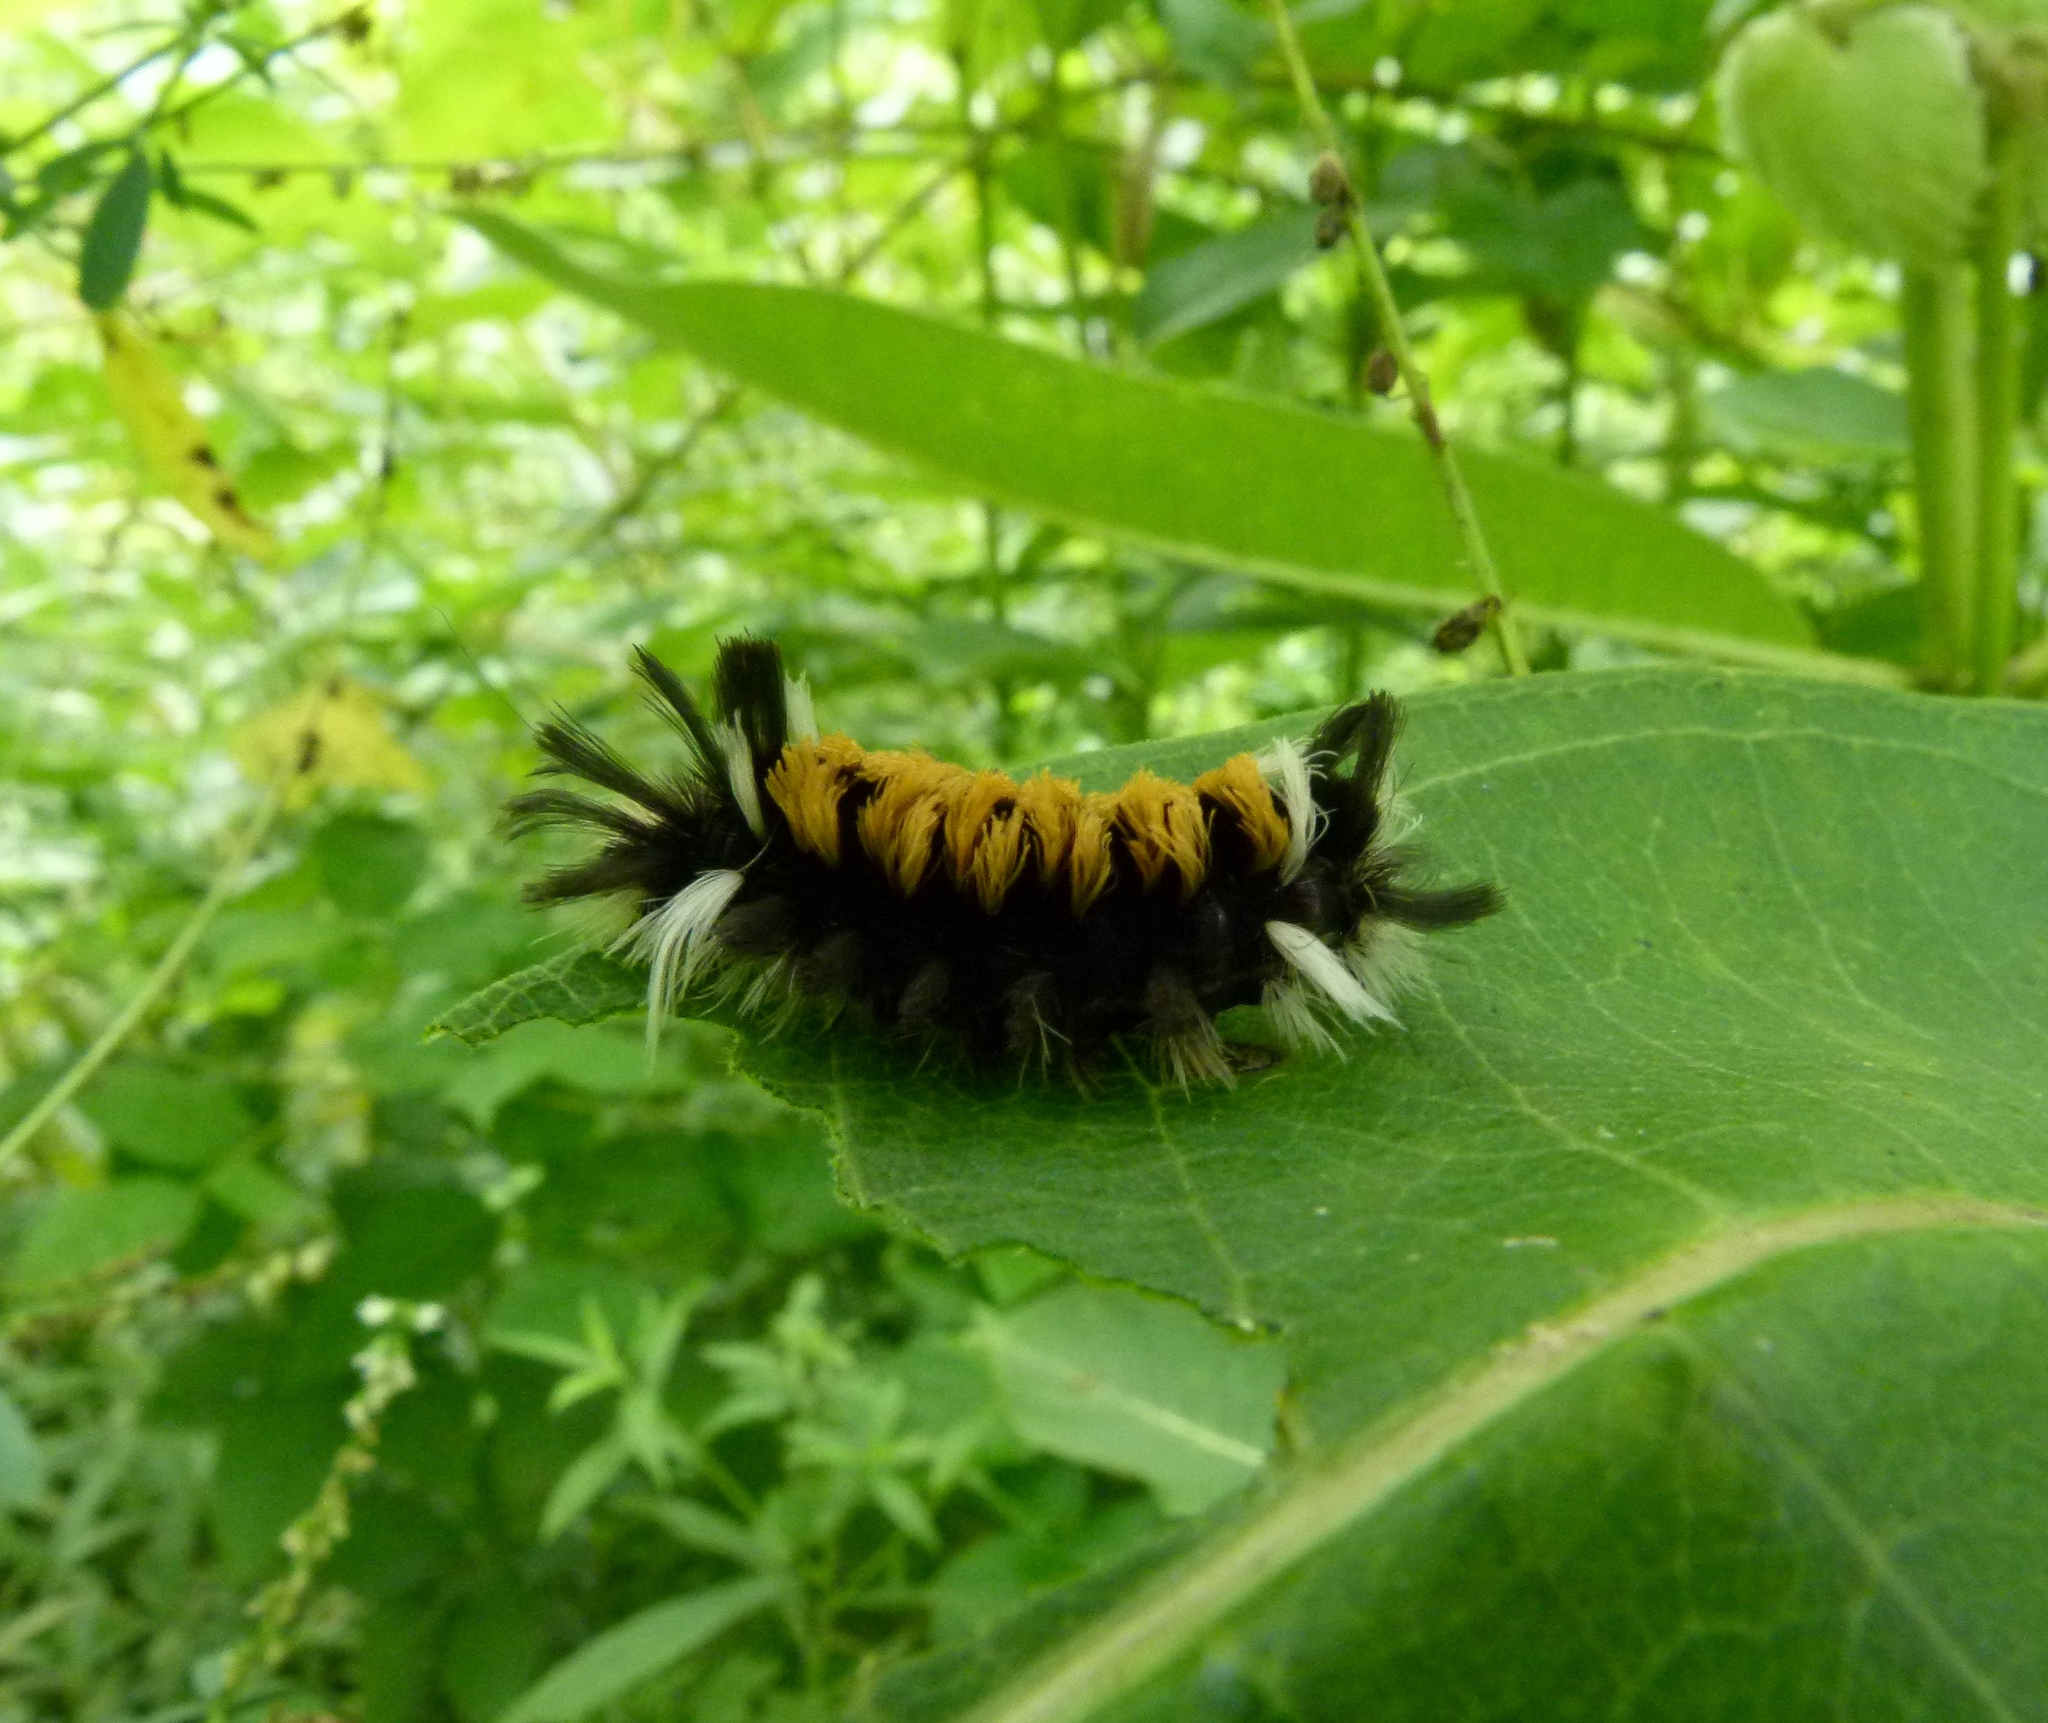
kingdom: Animalia
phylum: Arthropoda
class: Insecta
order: Lepidoptera
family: Erebidae
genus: Euchaetes
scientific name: Euchaetes egle
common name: Milkweed tussock moth
